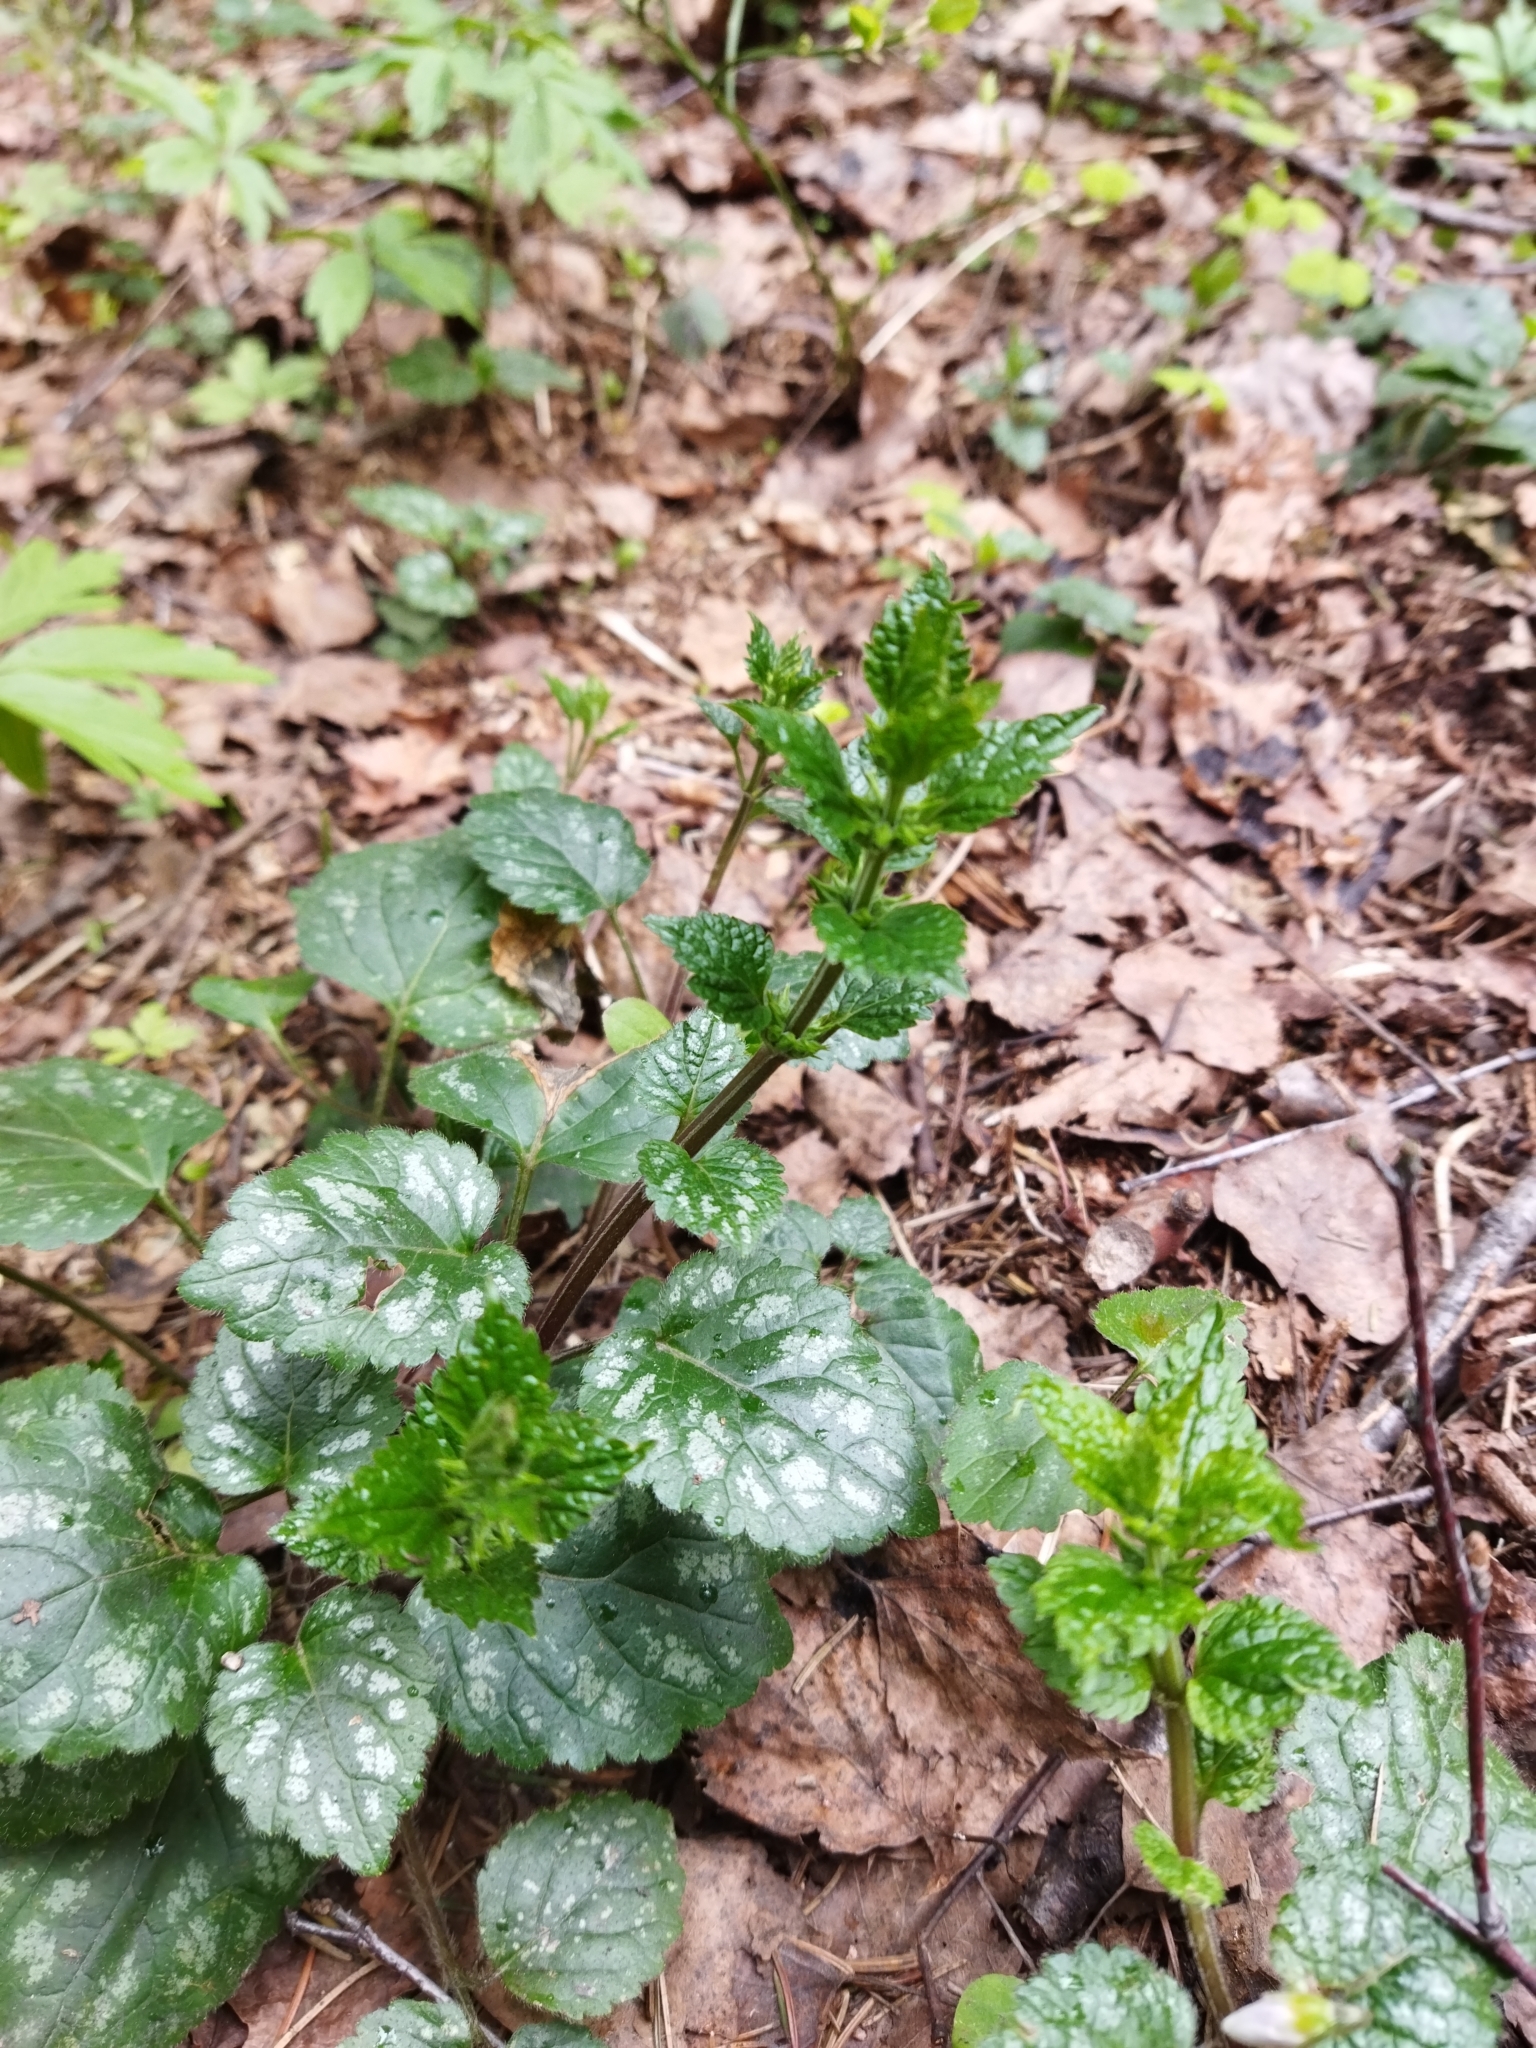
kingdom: Plantae
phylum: Tracheophyta
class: Magnoliopsida
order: Lamiales
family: Lamiaceae
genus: Lamium
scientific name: Lamium galeobdolon
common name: Yellow archangel
